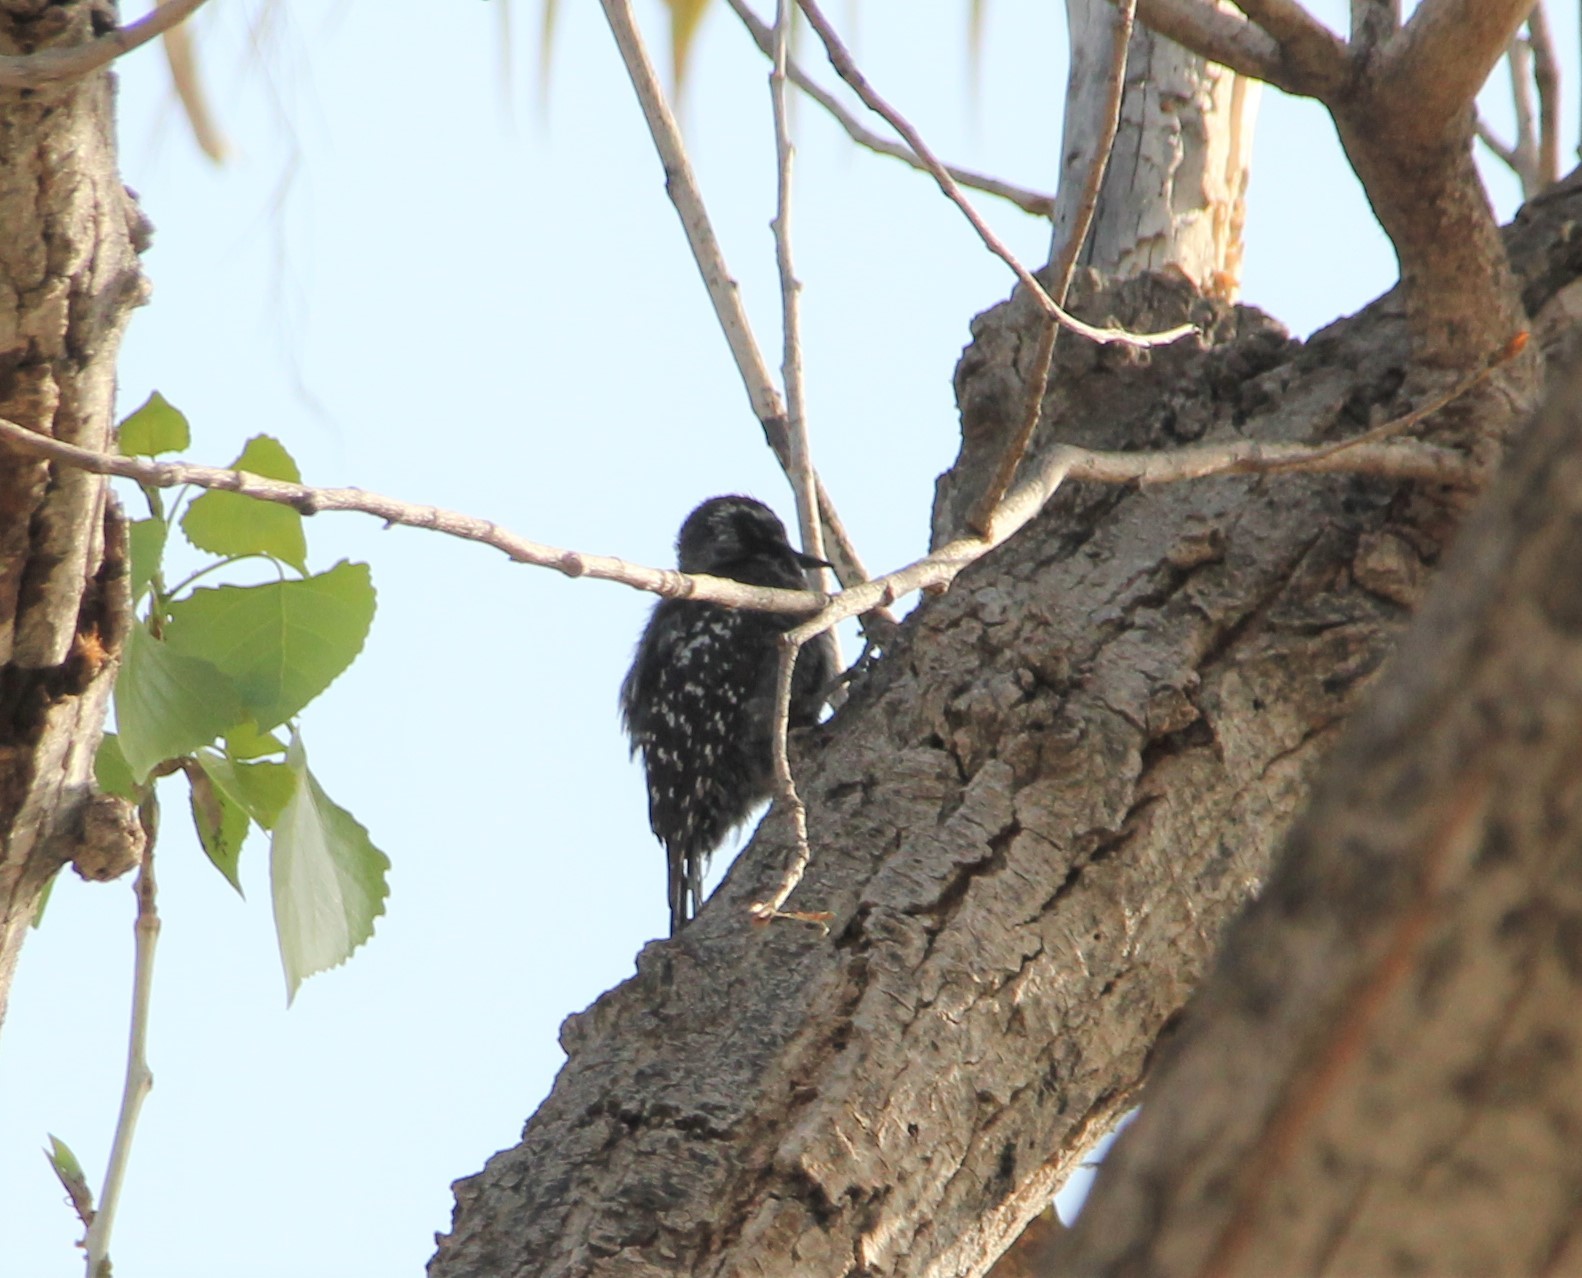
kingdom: Animalia
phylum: Chordata
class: Aves
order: Piciformes
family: Picidae
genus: Dryobates
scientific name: Dryobates nuttallii
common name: Nuttall's woodpecker
